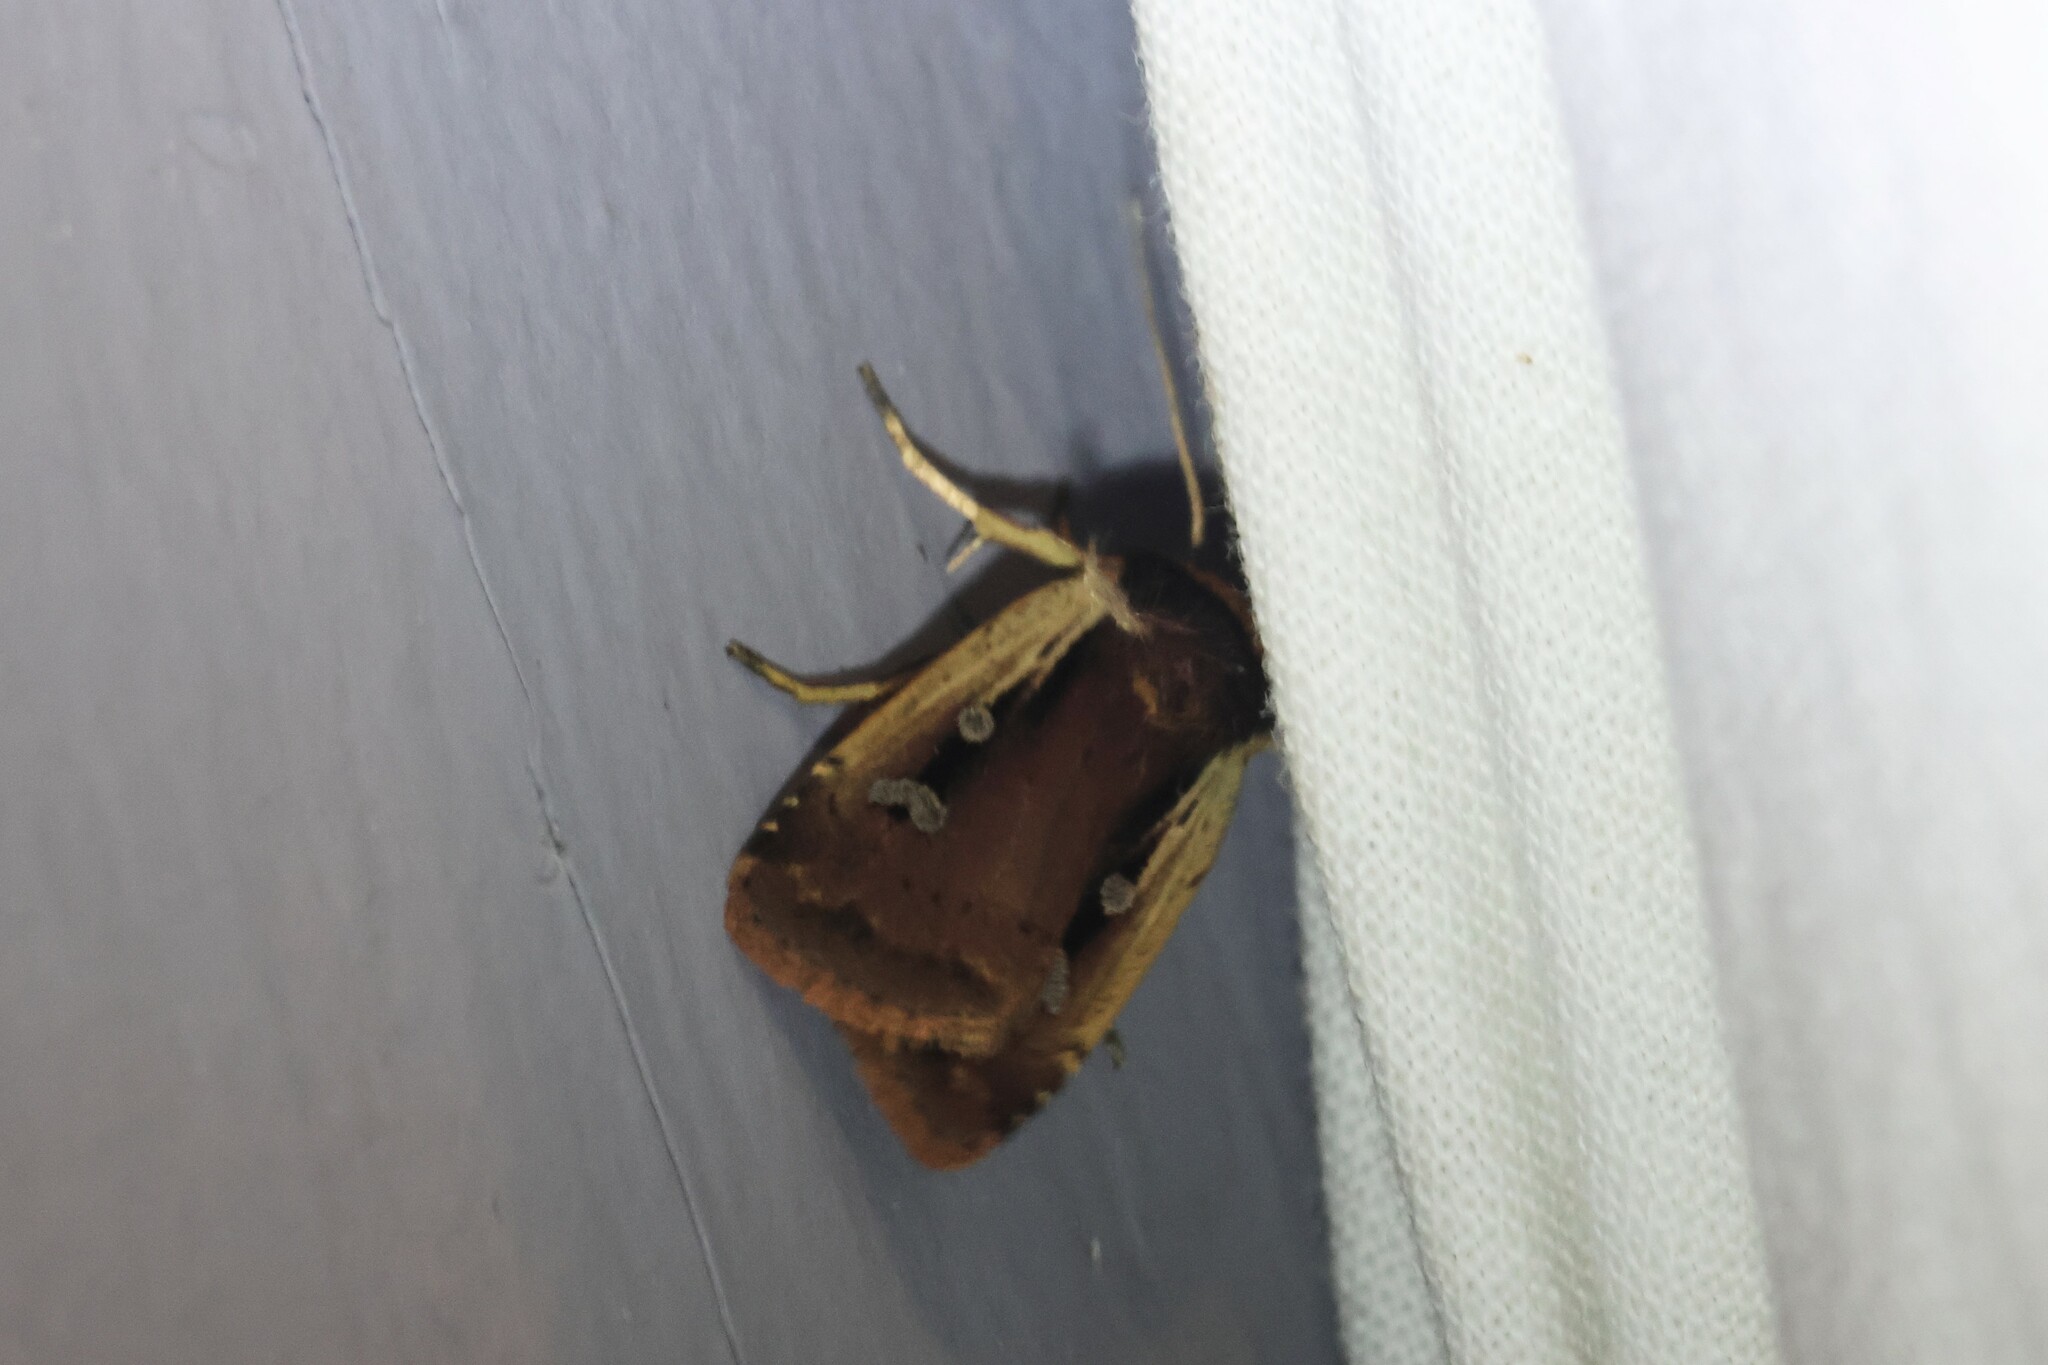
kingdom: Animalia
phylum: Arthropoda
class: Insecta
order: Lepidoptera
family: Noctuidae
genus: Ochropleura
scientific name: Ochropleura implecta
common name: Flame-shouldered dart
